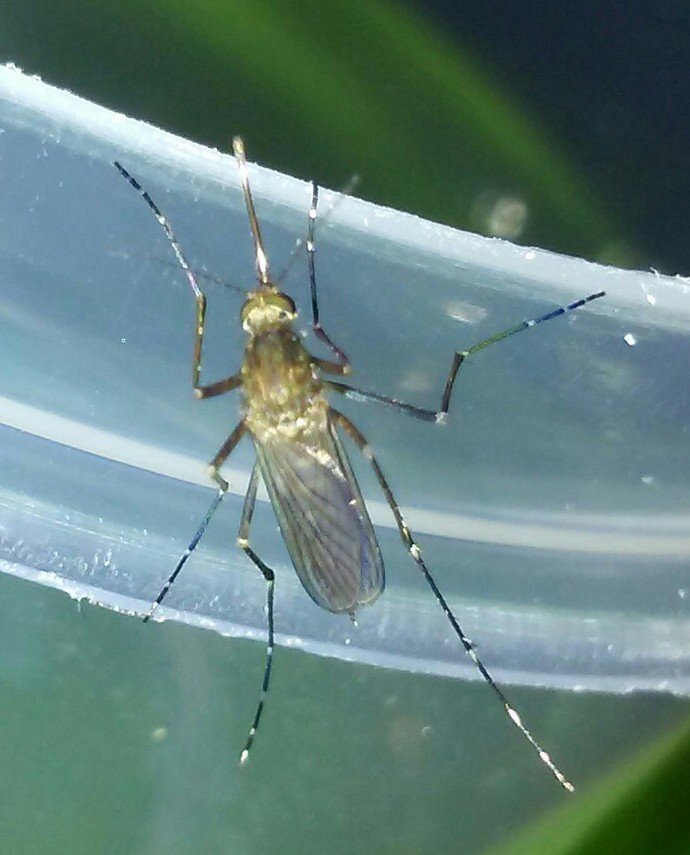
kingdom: Animalia
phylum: Arthropoda
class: Insecta
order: Diptera
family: Culicidae
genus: Aedes
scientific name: Aedes vexans
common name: Inland floodwater mosquito
